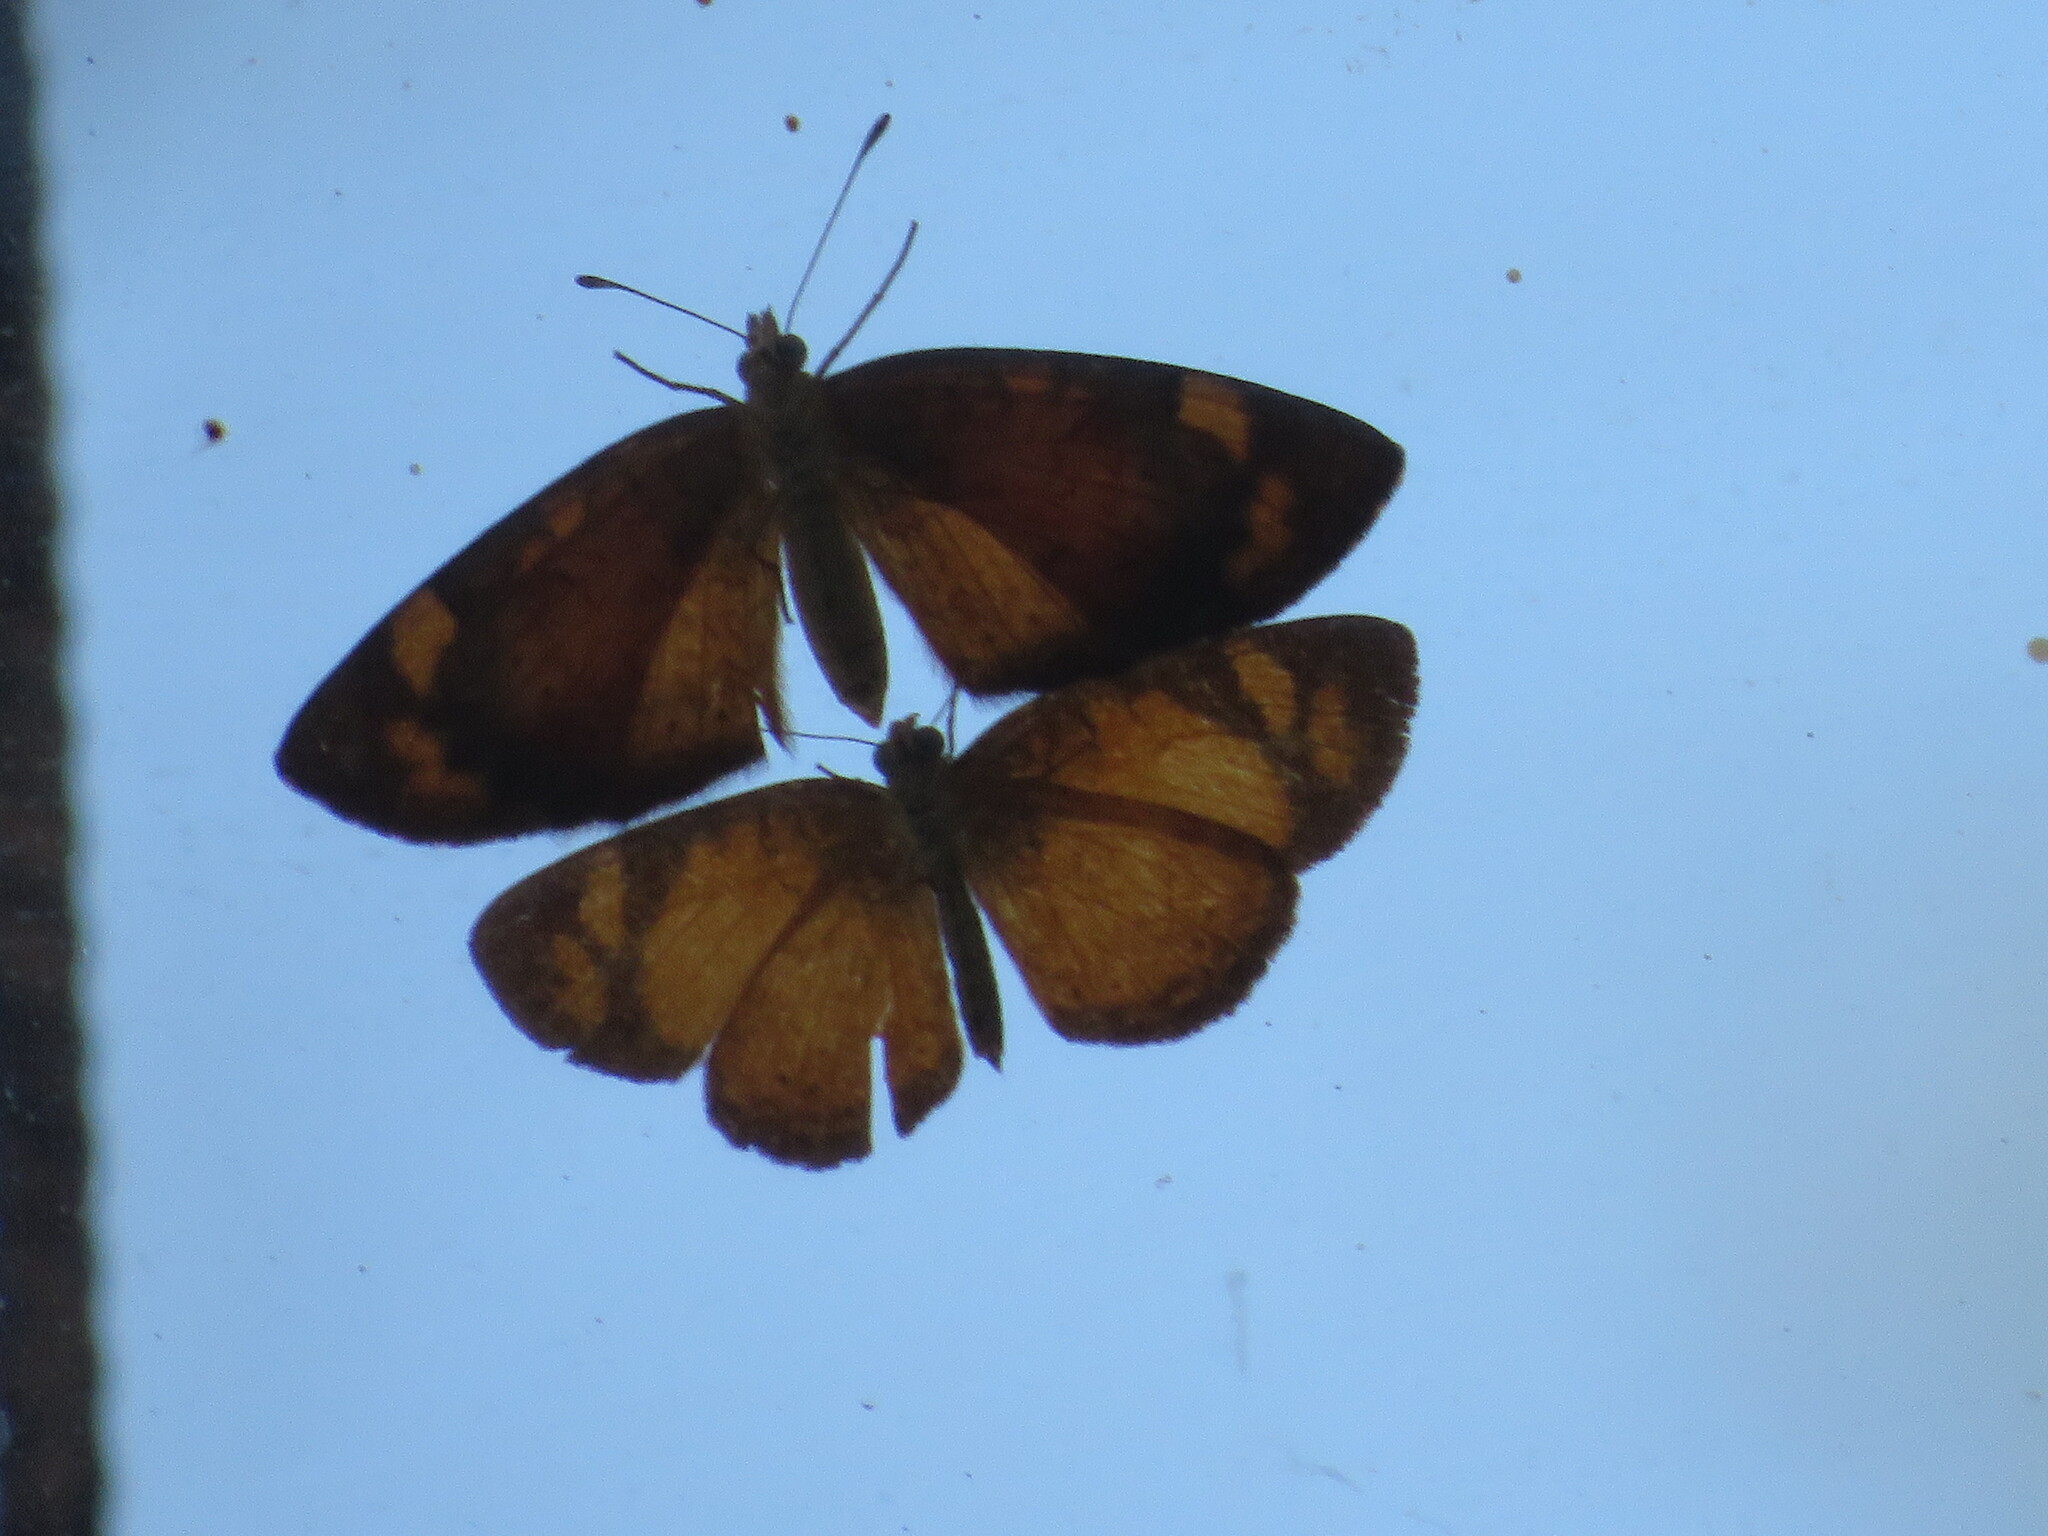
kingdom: Animalia
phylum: Arthropoda
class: Insecta
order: Lepidoptera
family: Nymphalidae
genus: Tegosa
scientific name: Tegosa claudina
